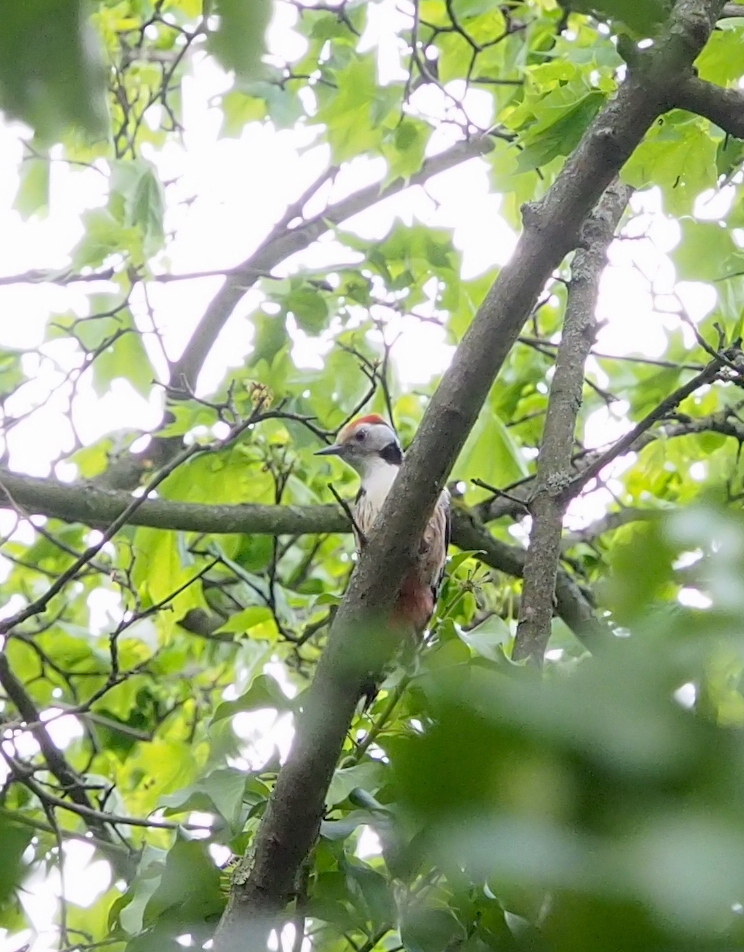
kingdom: Animalia
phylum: Chordata
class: Aves
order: Piciformes
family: Picidae
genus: Dendrocoptes
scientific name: Dendrocoptes medius
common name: Middle spotted woodpecker
